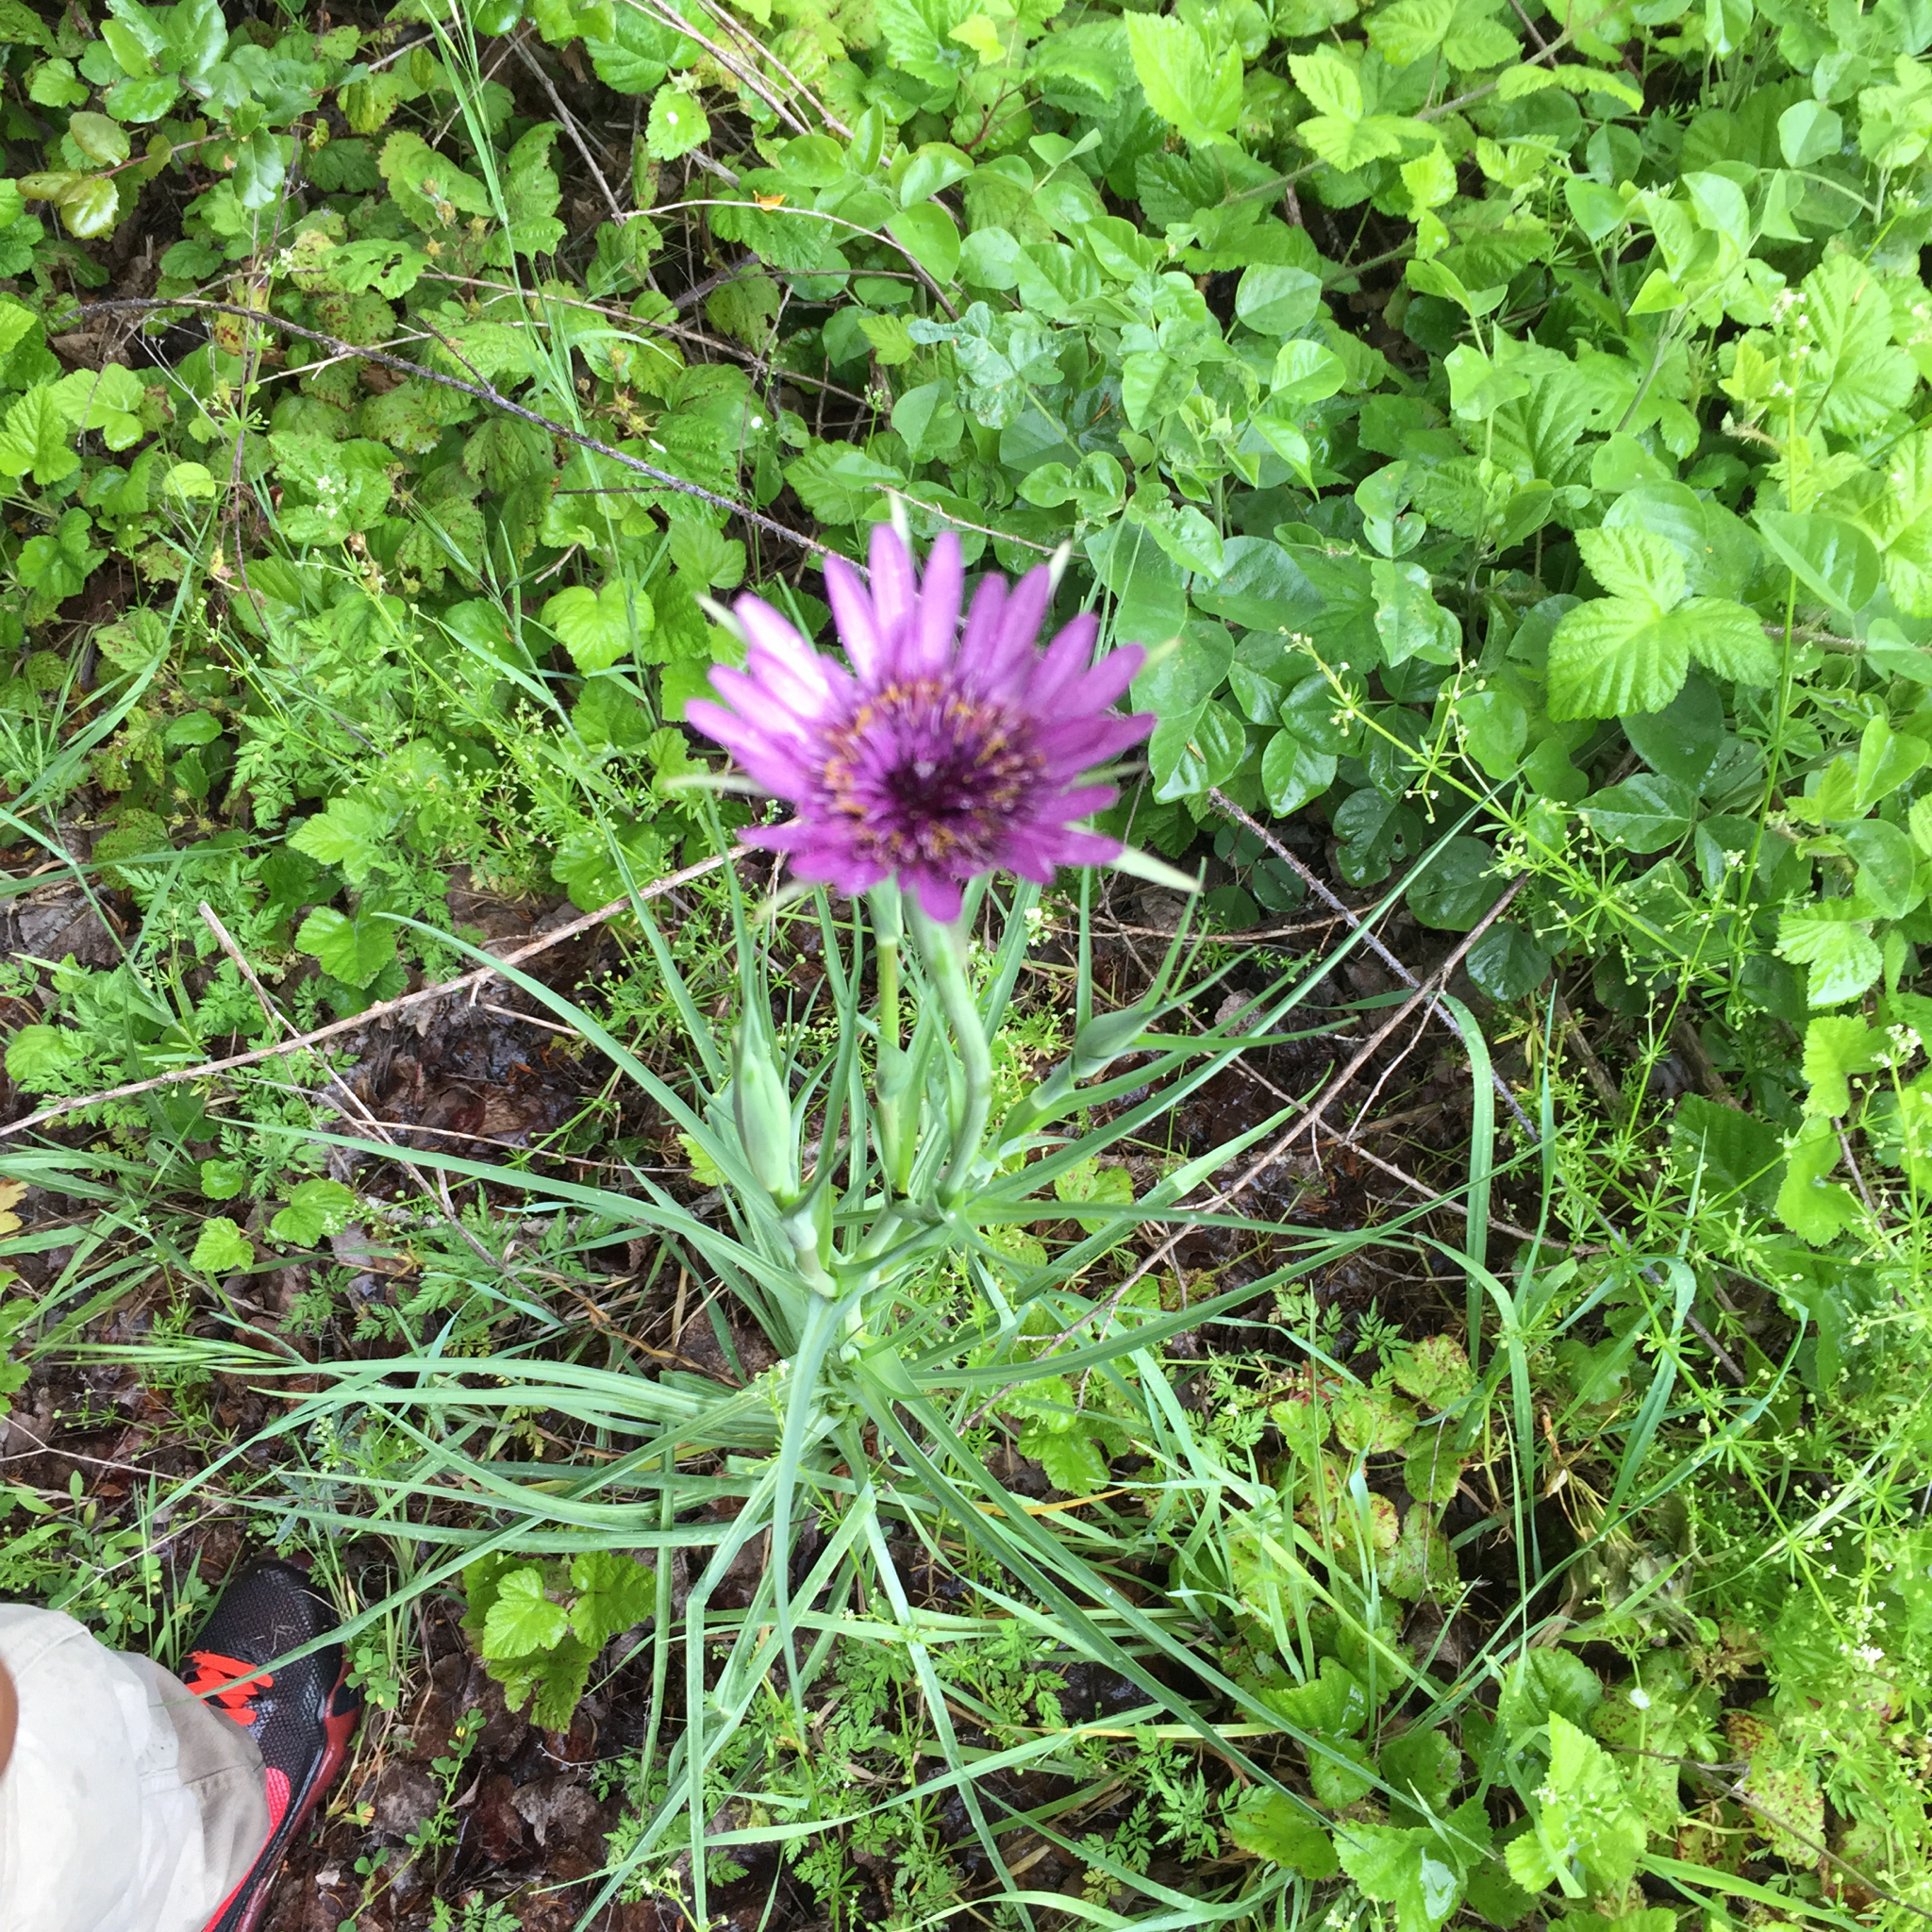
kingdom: Plantae
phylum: Tracheophyta
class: Magnoliopsida
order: Asterales
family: Asteraceae
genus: Tragopogon
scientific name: Tragopogon porrifolius
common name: Salsify
